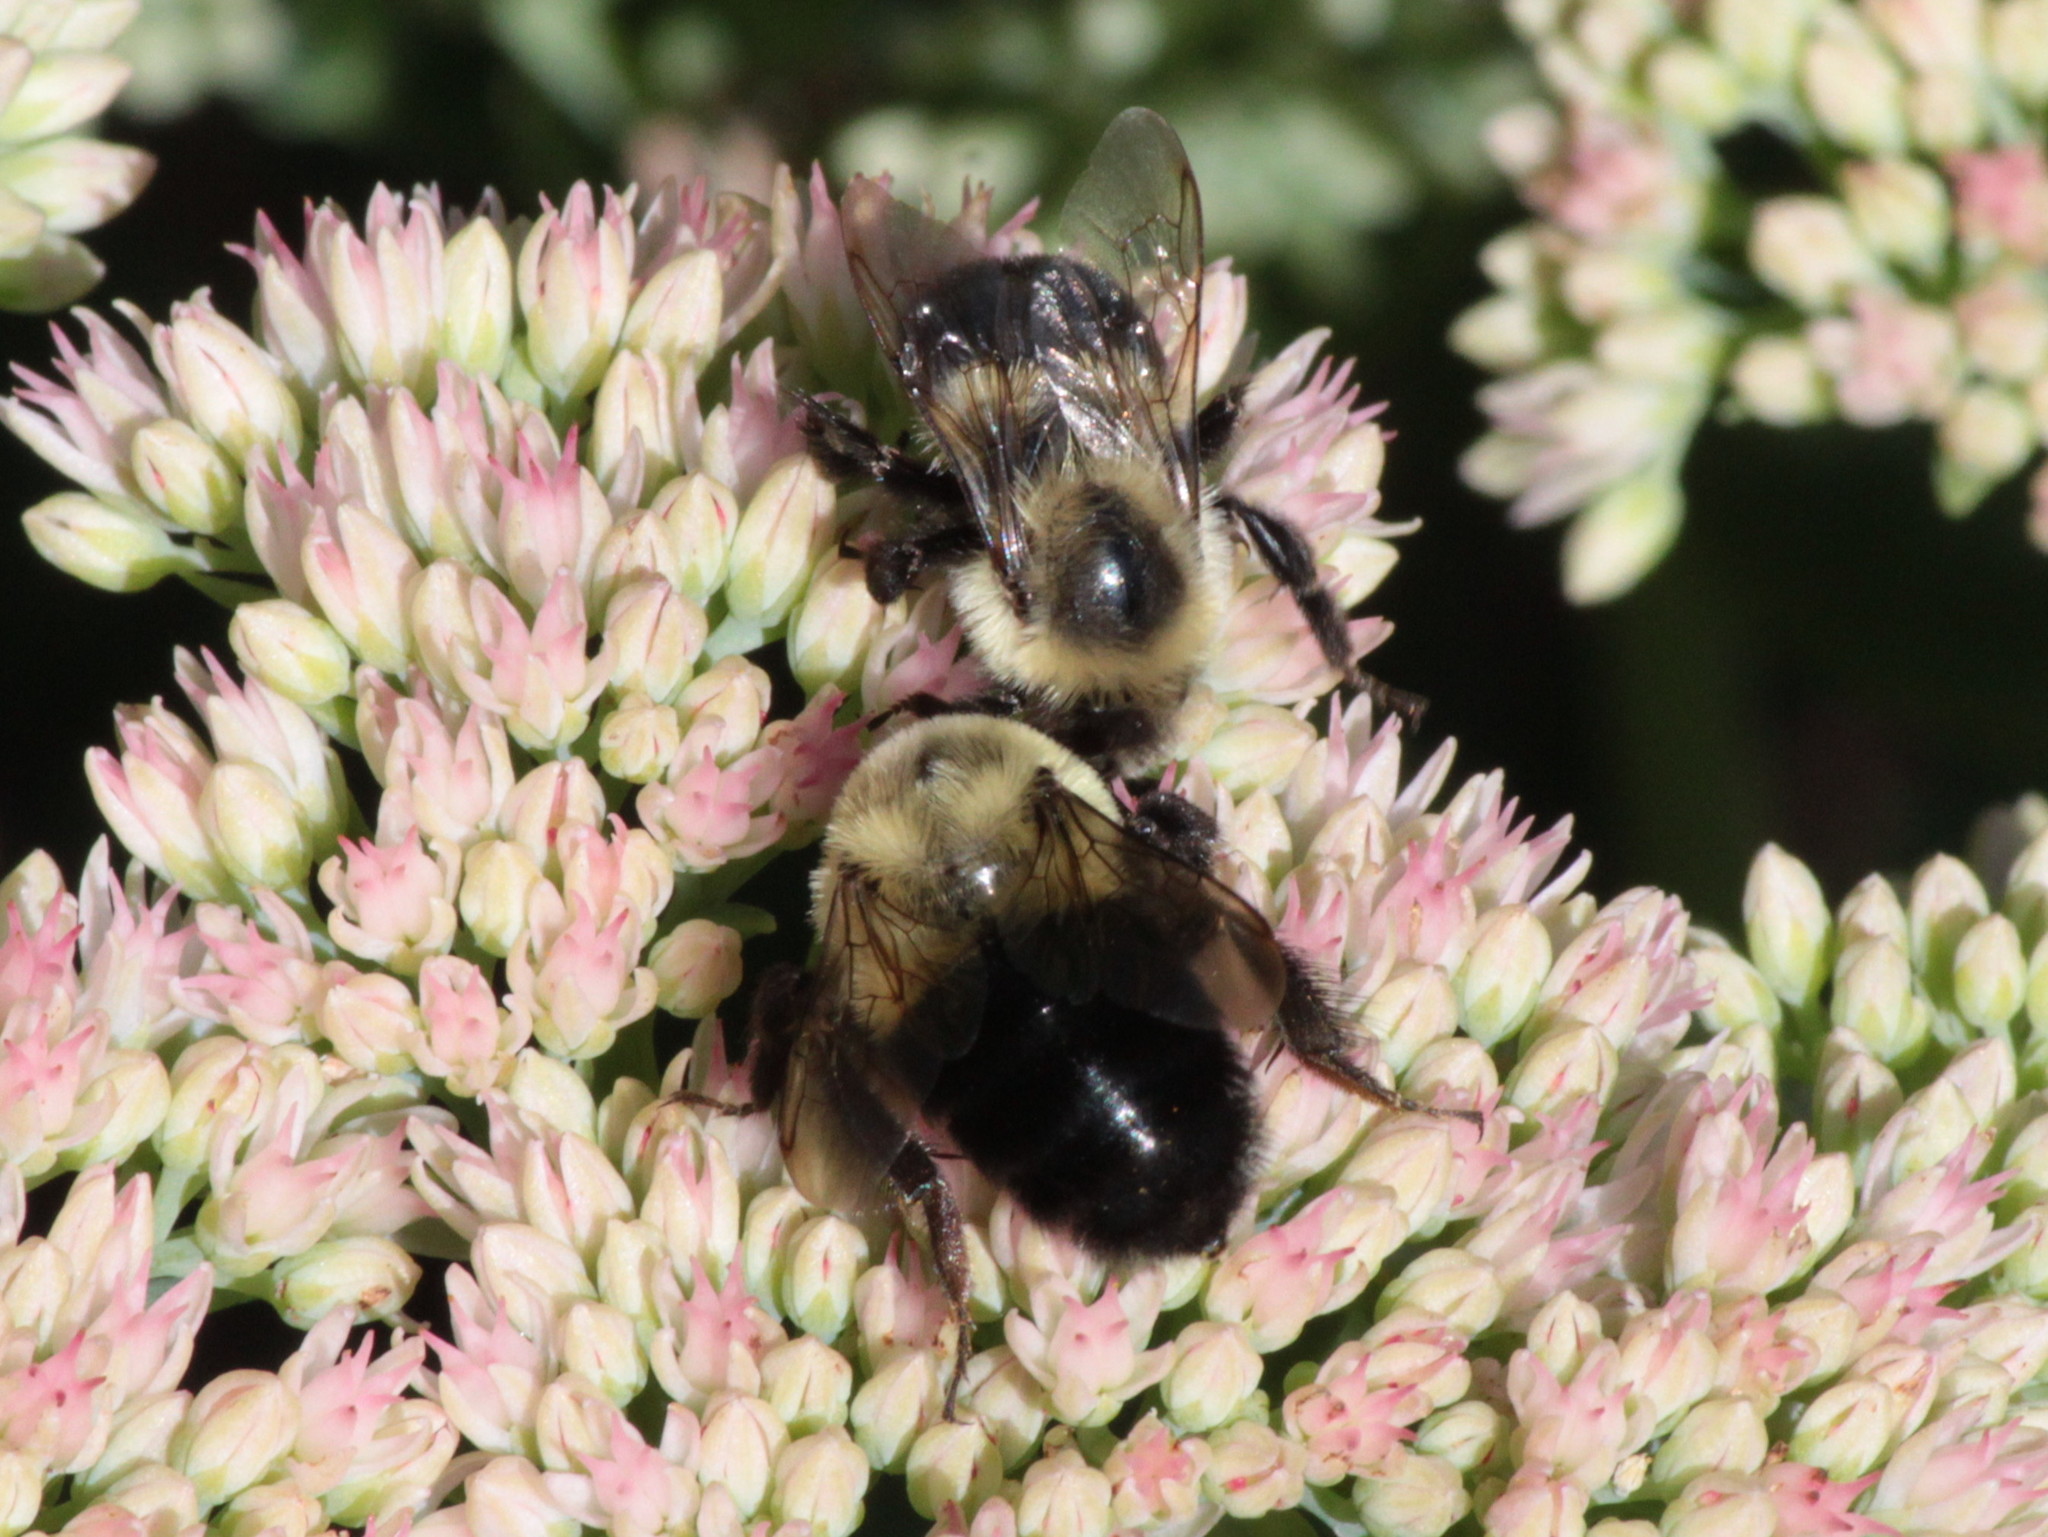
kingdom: Animalia
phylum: Arthropoda
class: Insecta
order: Hymenoptera
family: Apidae
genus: Bombus
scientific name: Bombus impatiens
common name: Common eastern bumble bee
